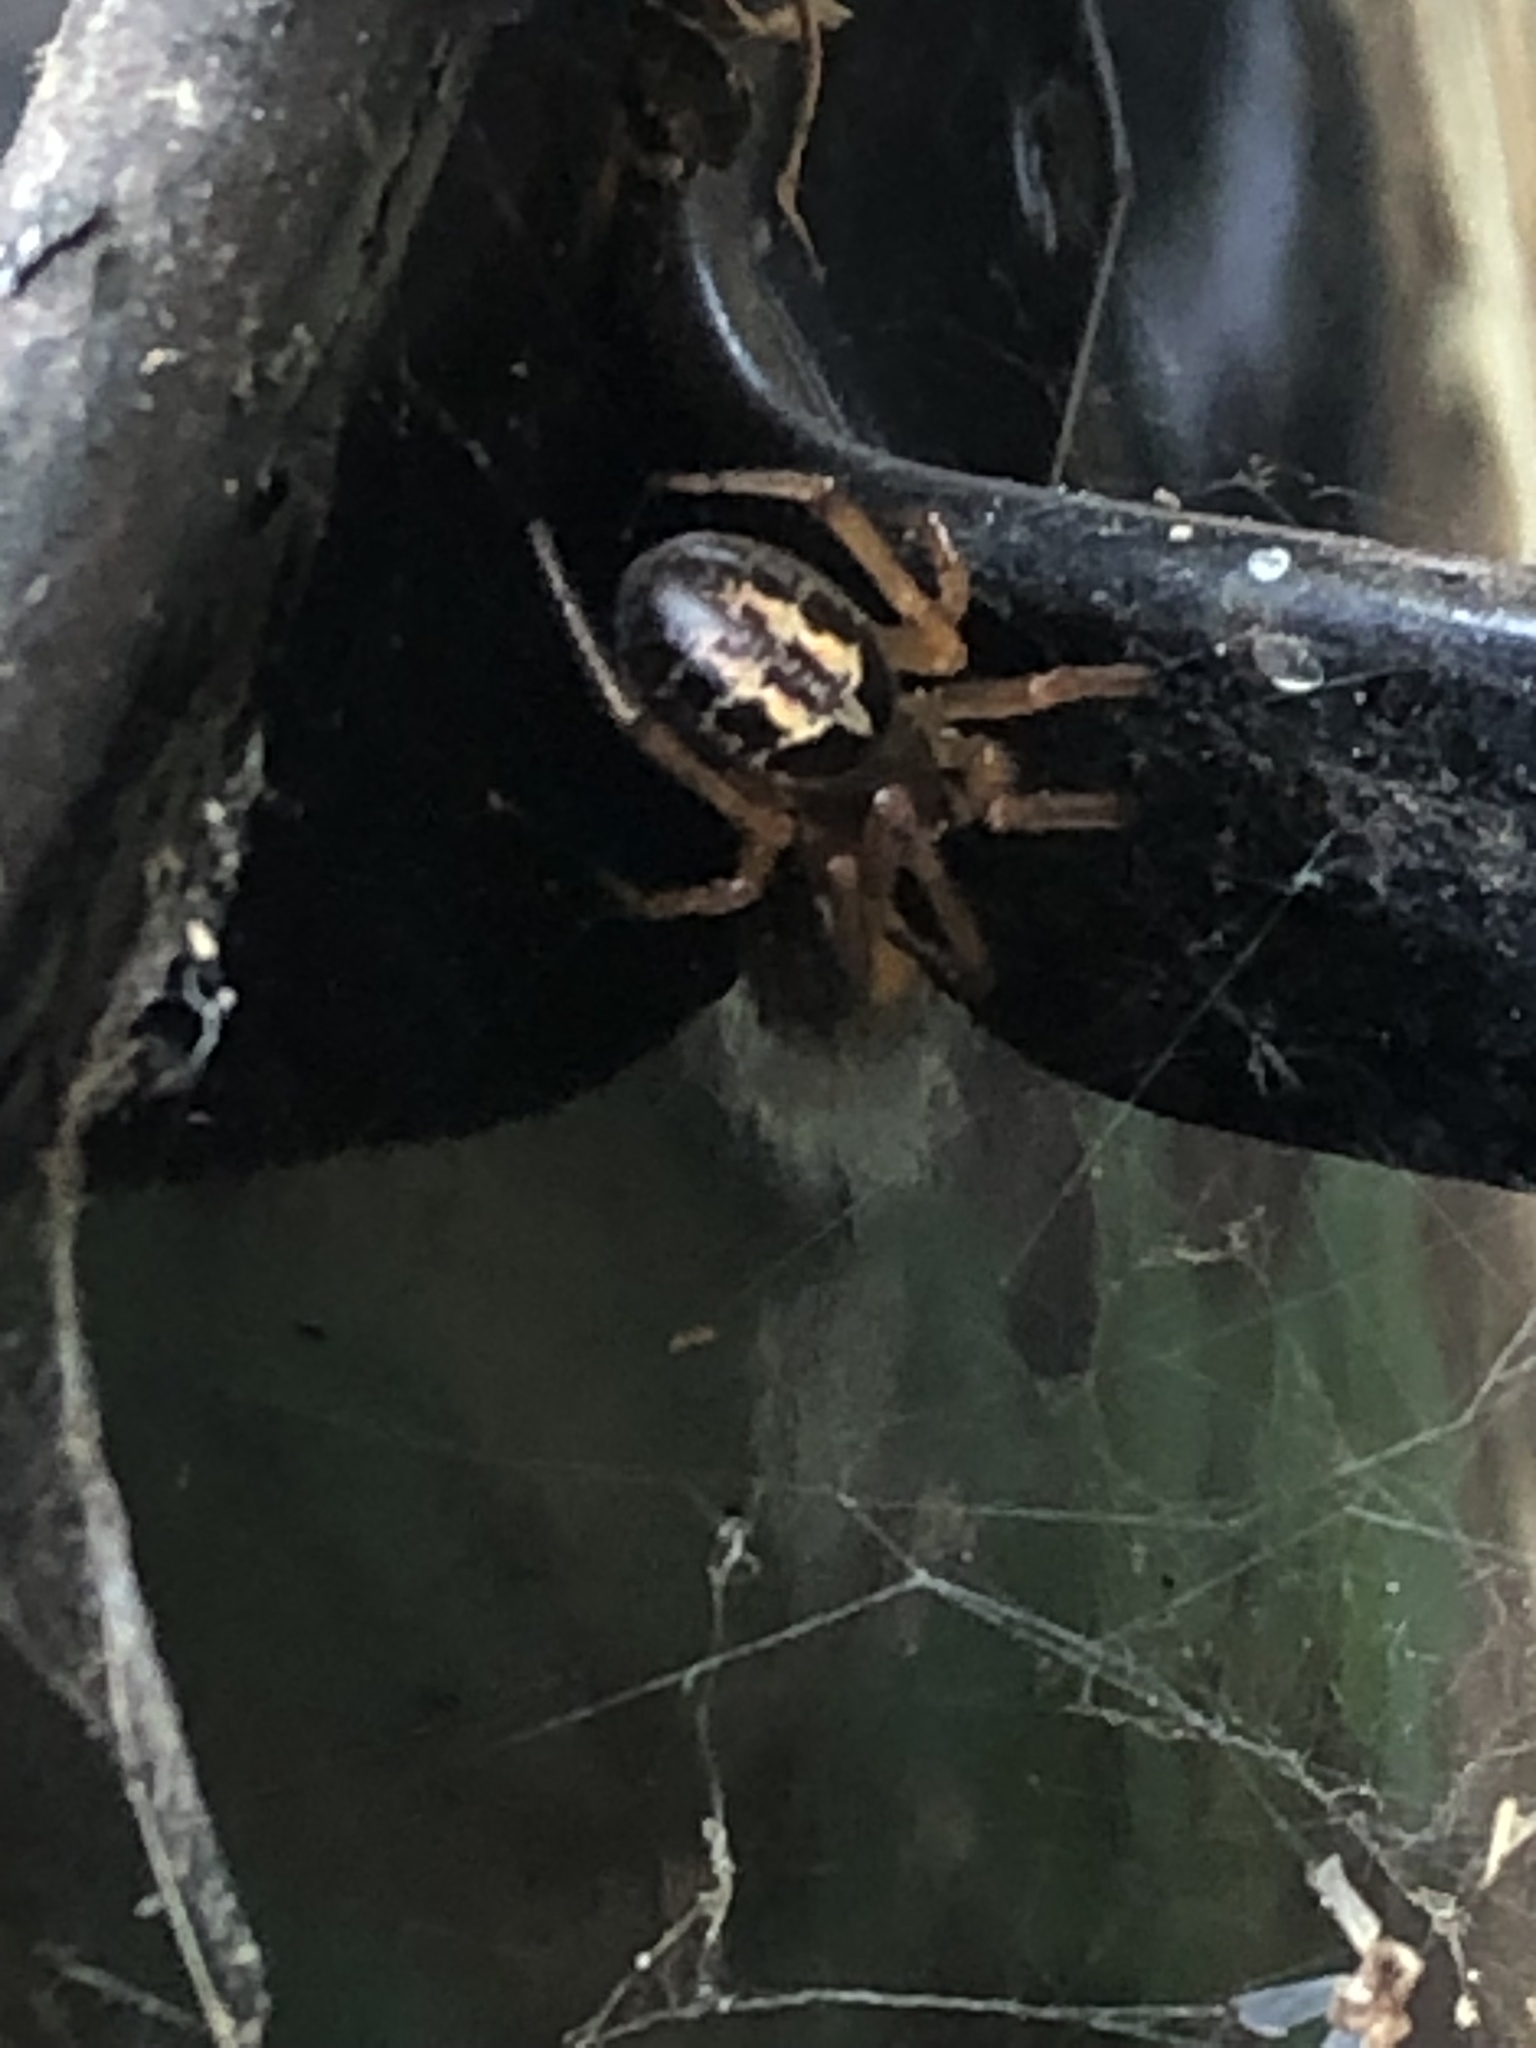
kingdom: Animalia
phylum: Arthropoda
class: Arachnida
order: Araneae
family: Theridiidae
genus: Steatoda
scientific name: Steatoda nobilis
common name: Cobweb weaver
